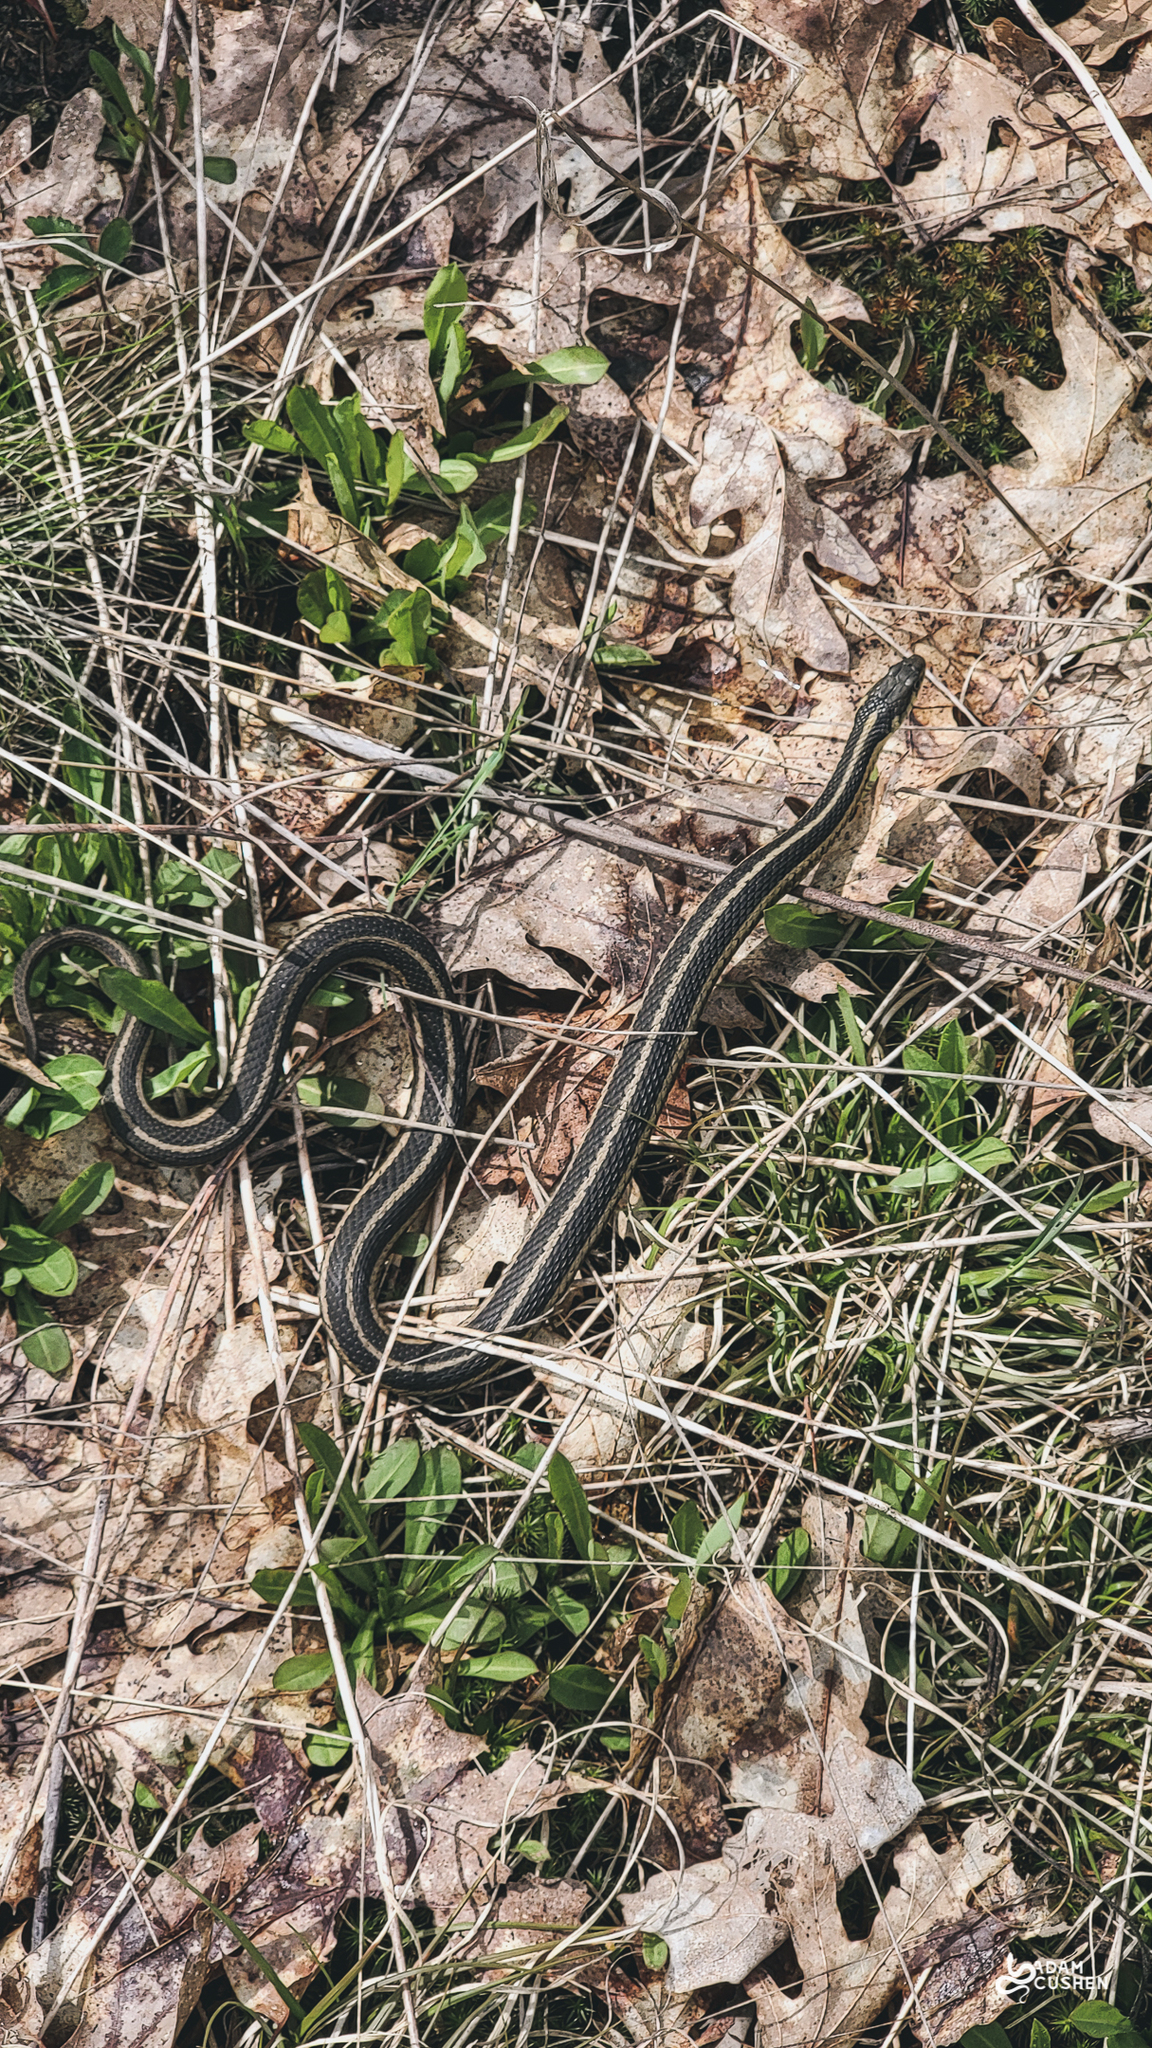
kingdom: Animalia
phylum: Chordata
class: Squamata
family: Colubridae
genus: Thamnophis
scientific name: Thamnophis sirtalis
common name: Common garter snake
